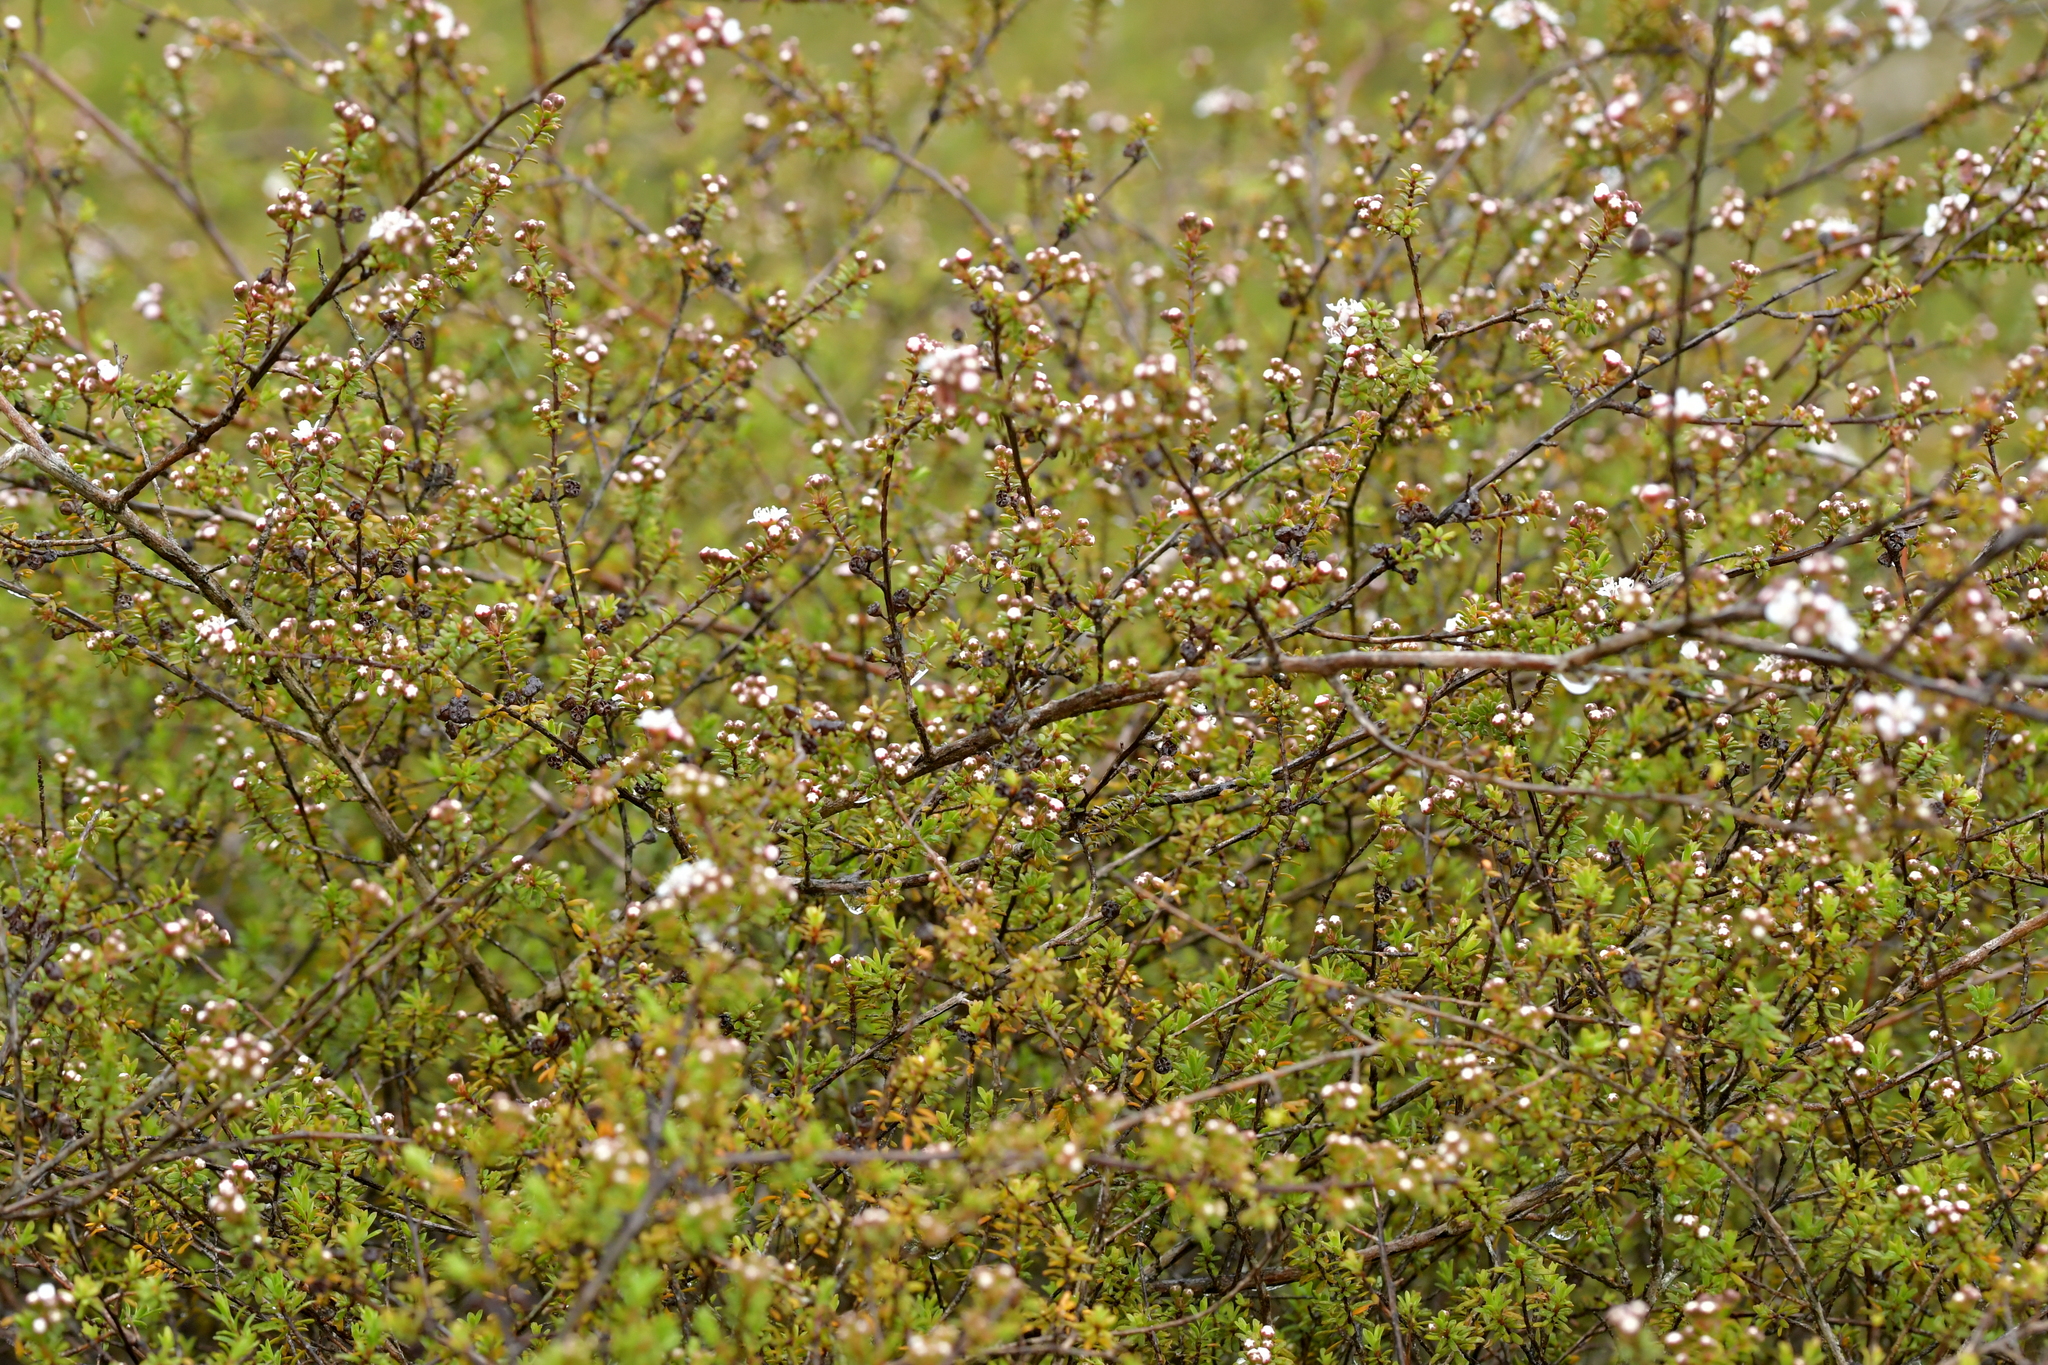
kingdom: Plantae
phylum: Tracheophyta
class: Magnoliopsida
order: Myrtales
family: Myrtaceae
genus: Kunzea
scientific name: Kunzea tenuicaulis
